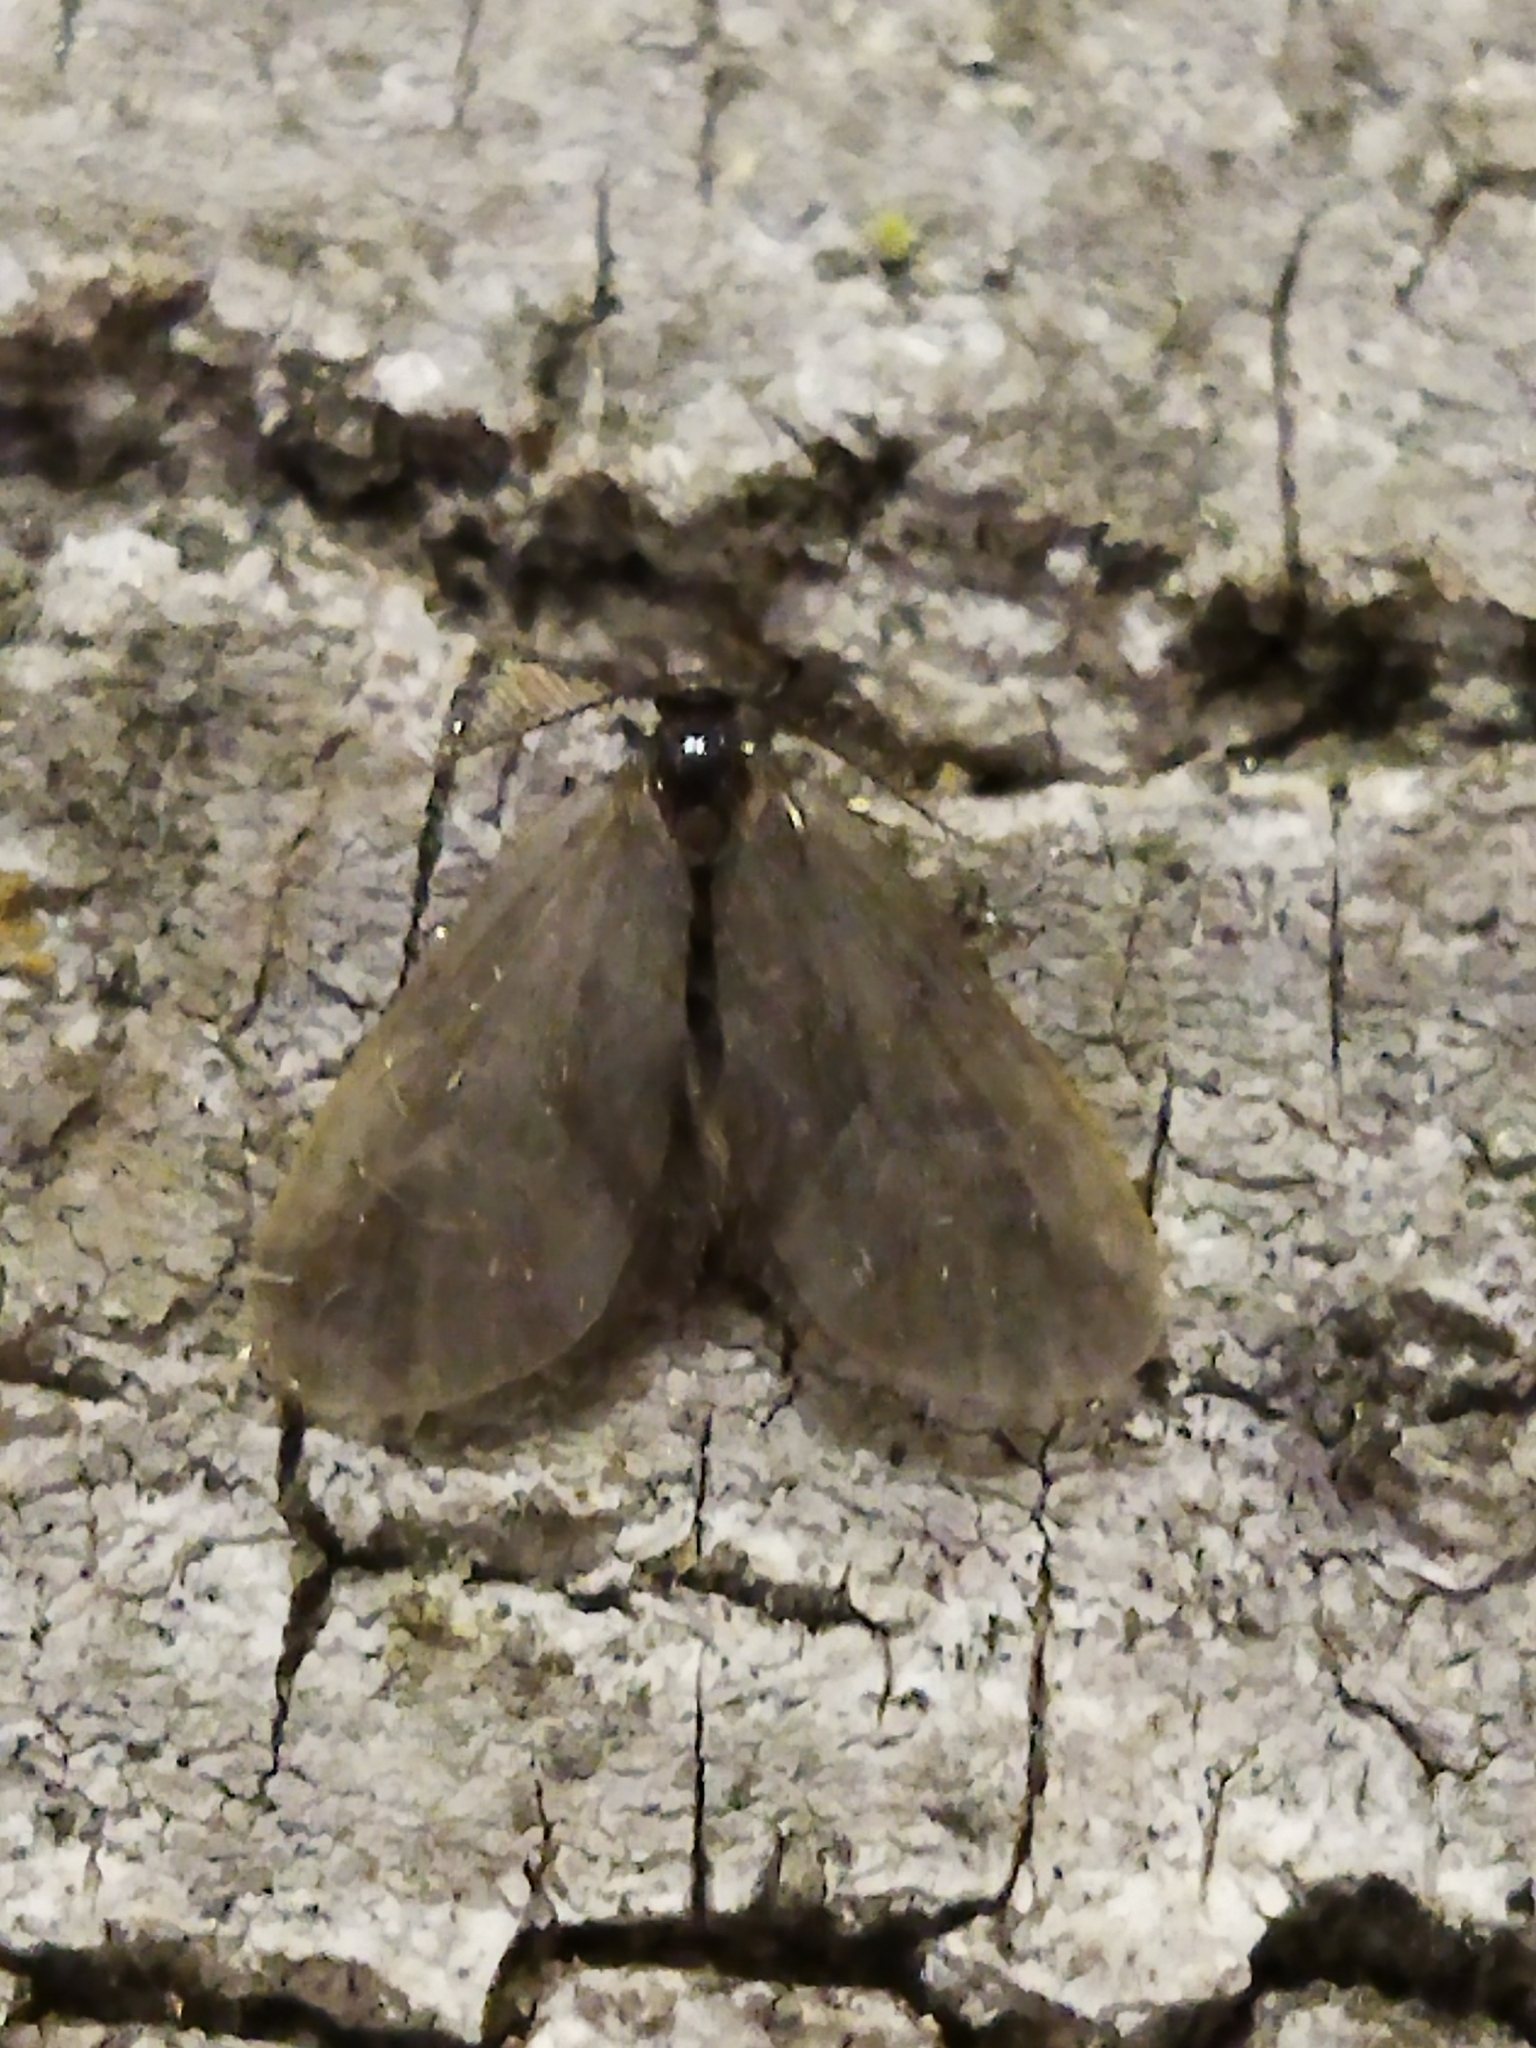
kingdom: Animalia
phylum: Arthropoda
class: Insecta
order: Lepidoptera
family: Psychidae
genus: Rebelia
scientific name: Rebelia perlucidella
